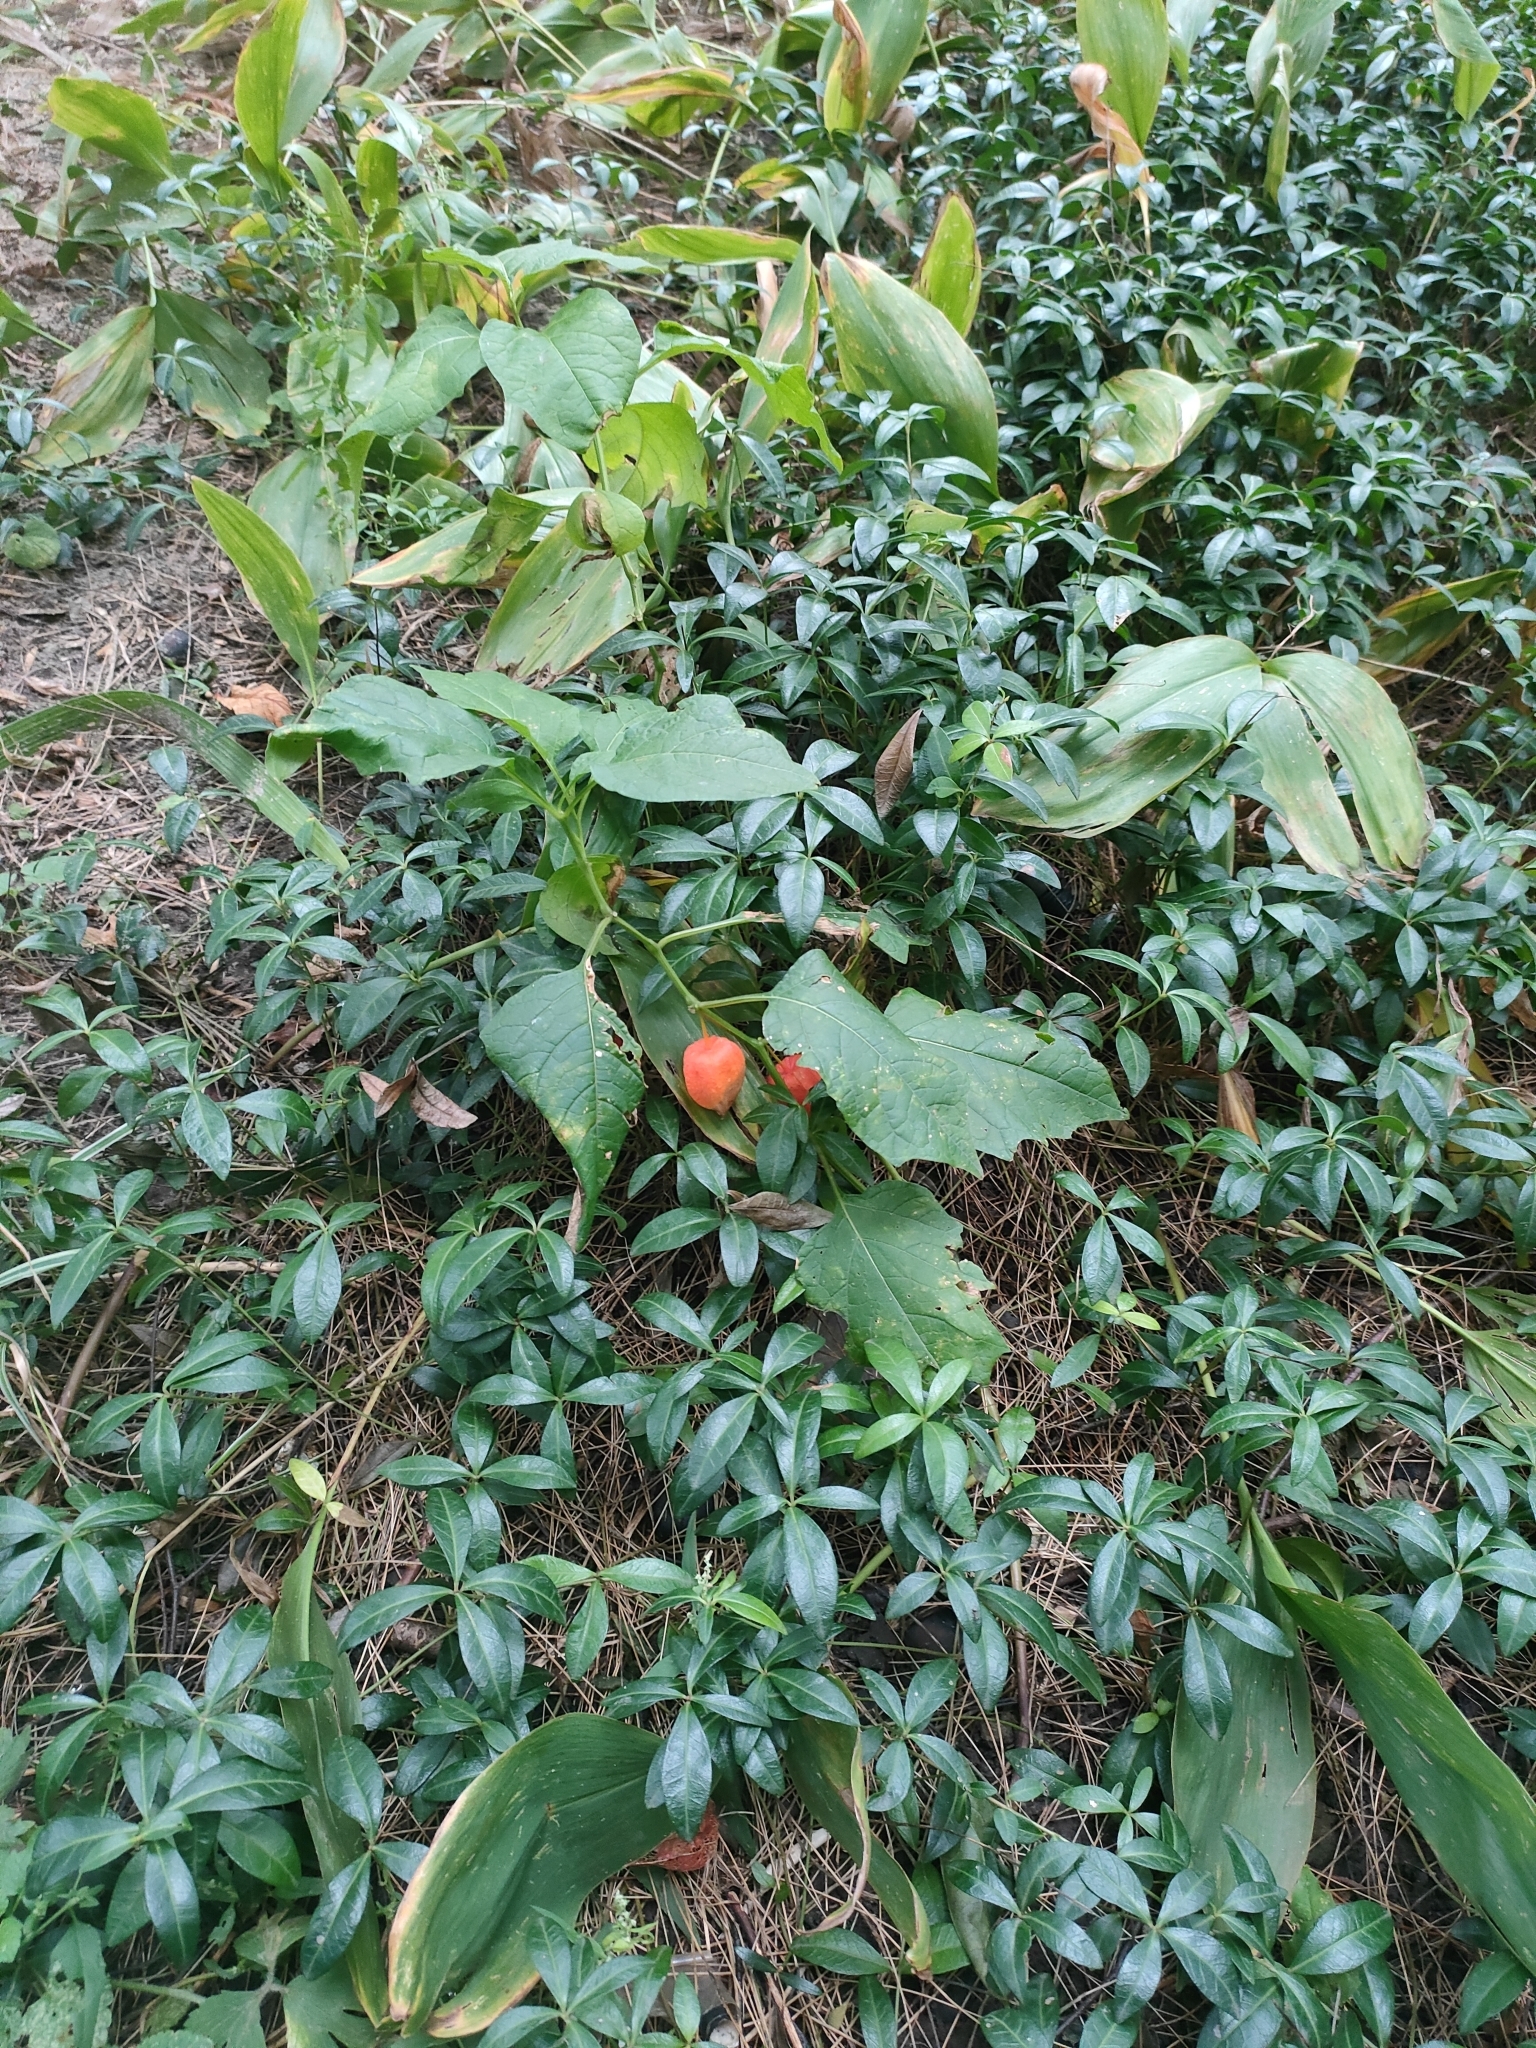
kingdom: Plantae
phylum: Tracheophyta
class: Magnoliopsida
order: Solanales
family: Solanaceae
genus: Alkekengi
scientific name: Alkekengi officinarum
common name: Japanese-lantern
